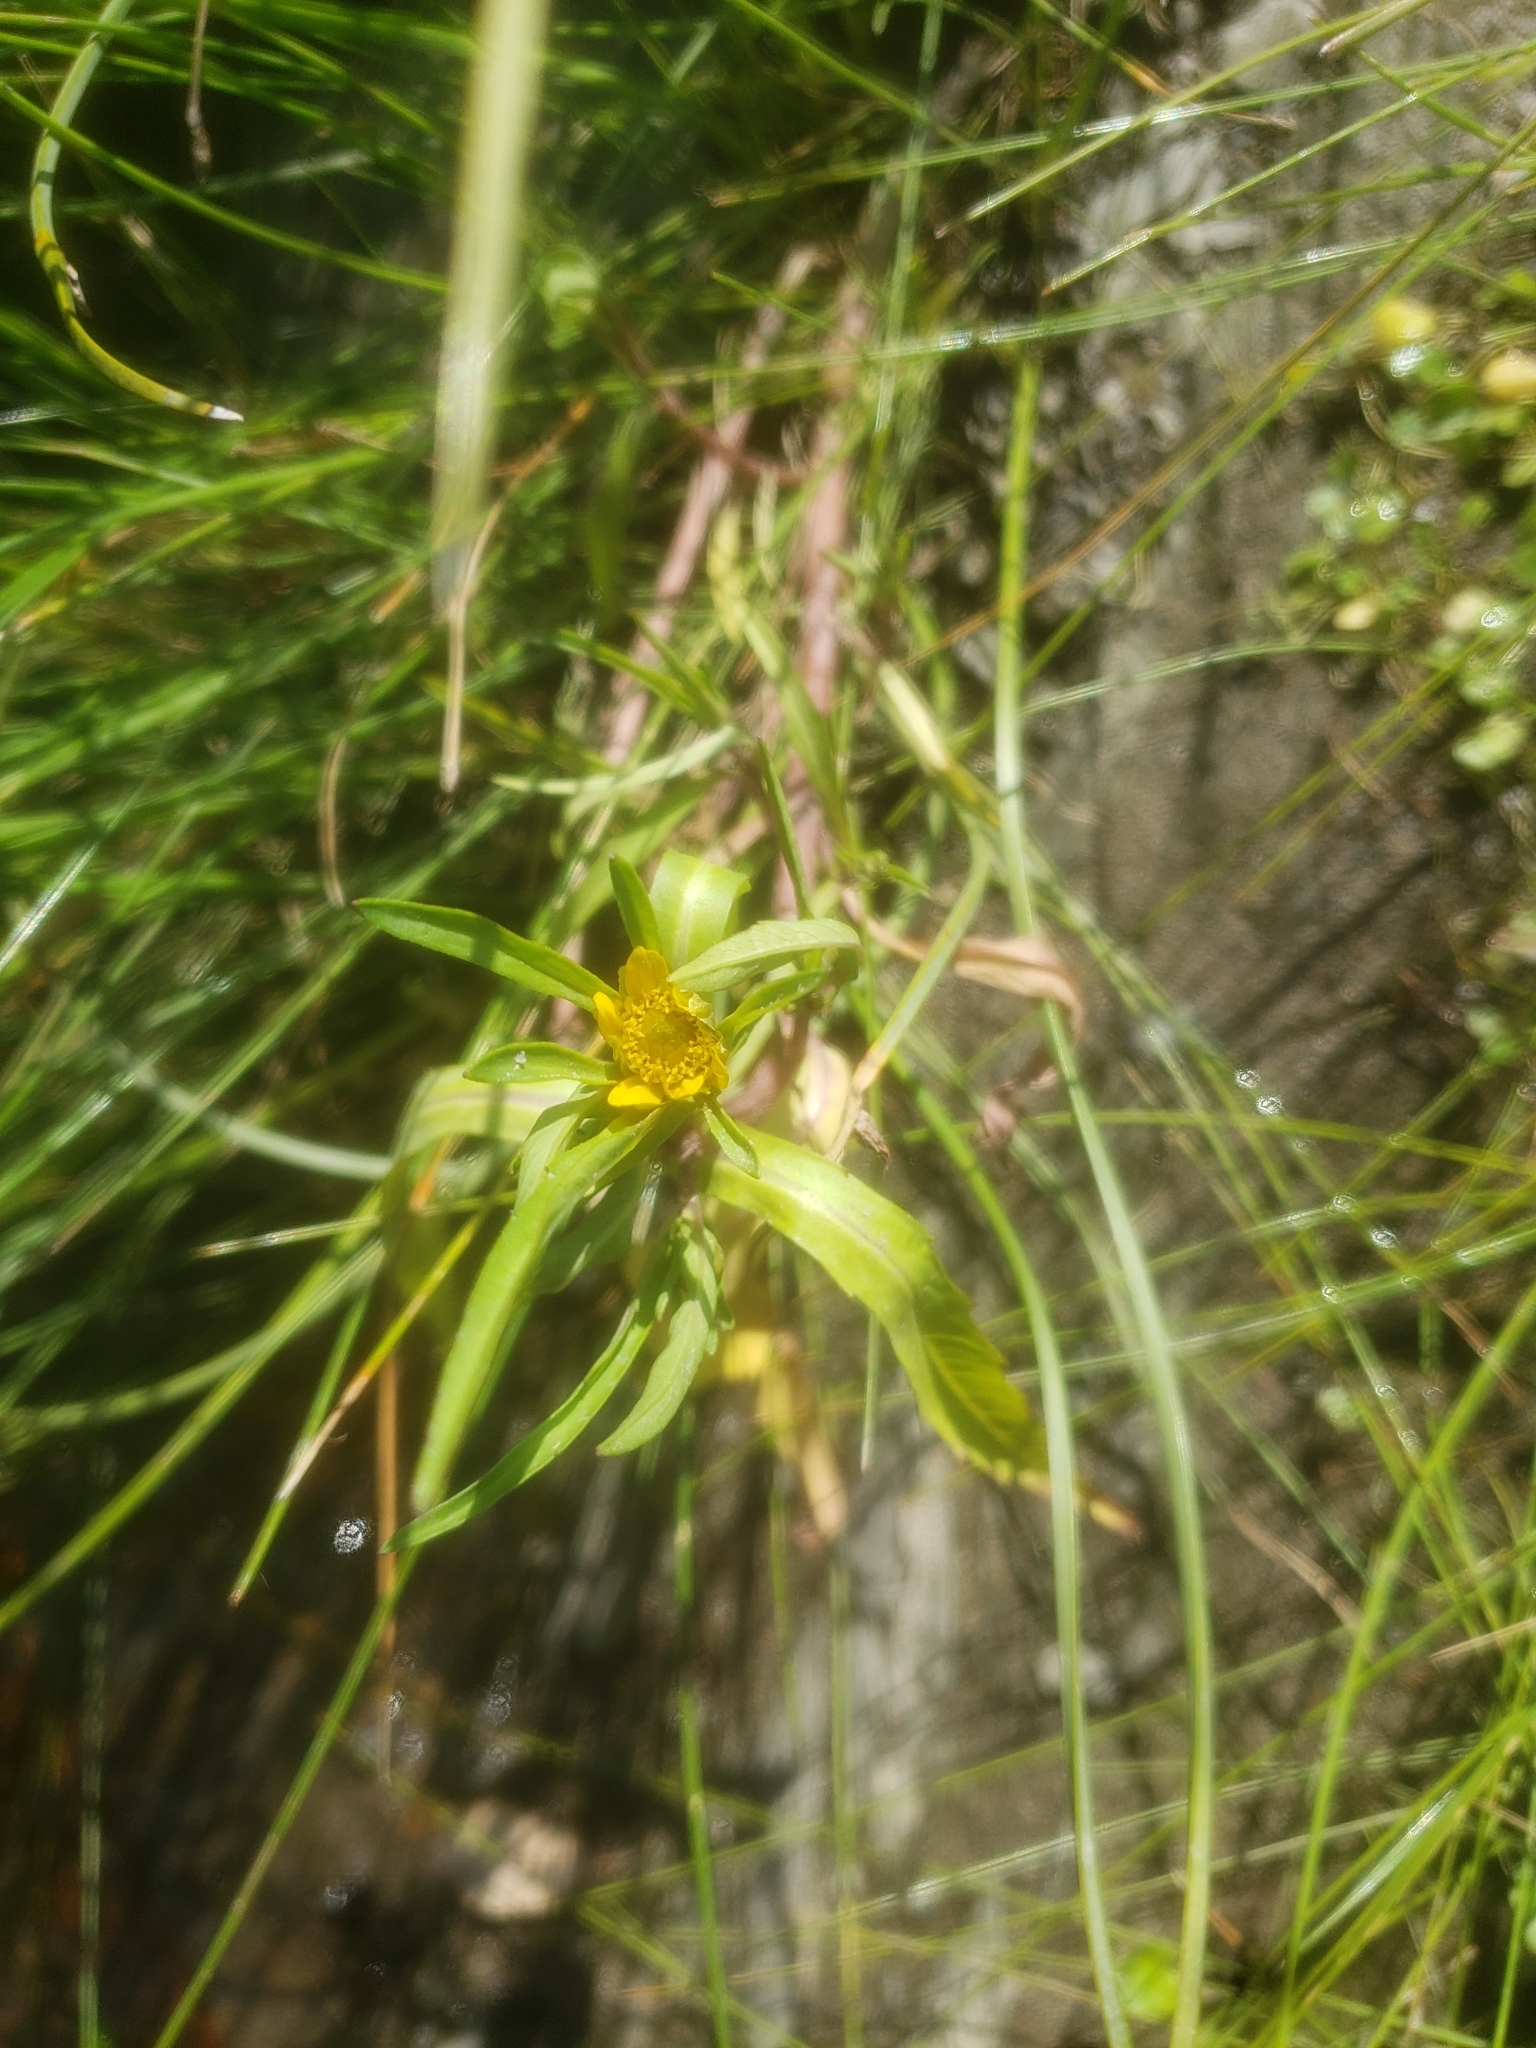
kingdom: Plantae
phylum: Tracheophyta
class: Magnoliopsida
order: Asterales
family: Asteraceae
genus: Bidens
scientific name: Bidens hyperborea
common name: Coastal beggarticks
